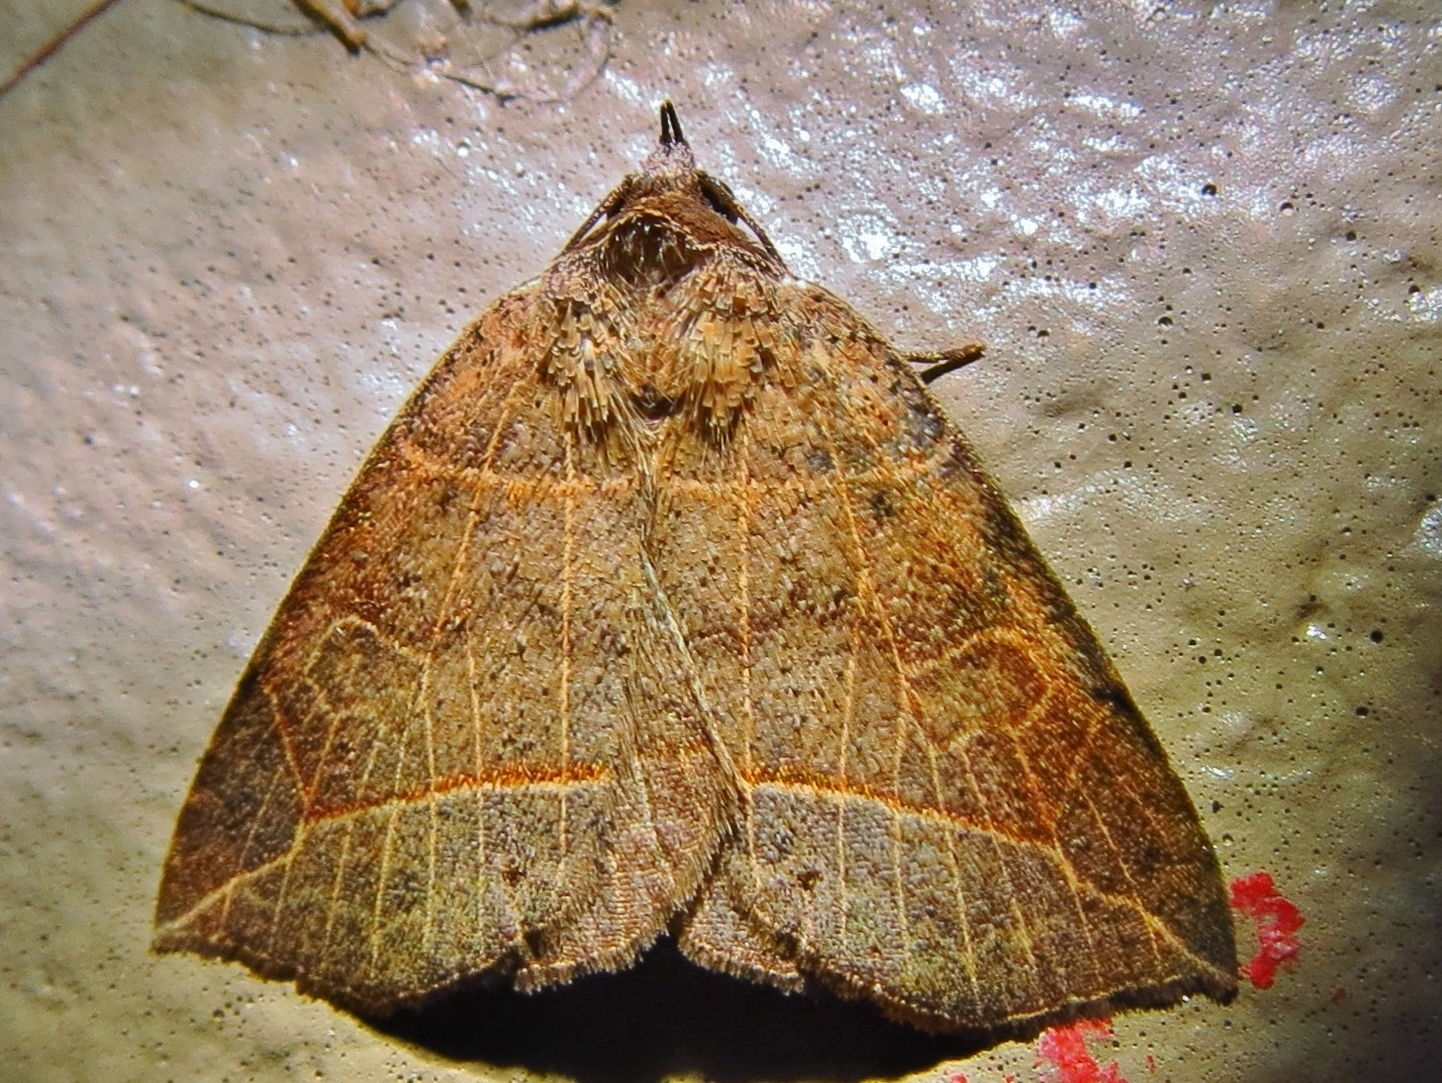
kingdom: Animalia
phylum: Arthropoda
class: Insecta
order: Lepidoptera
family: Erebidae
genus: Isogona
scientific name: Isogona tenuis
